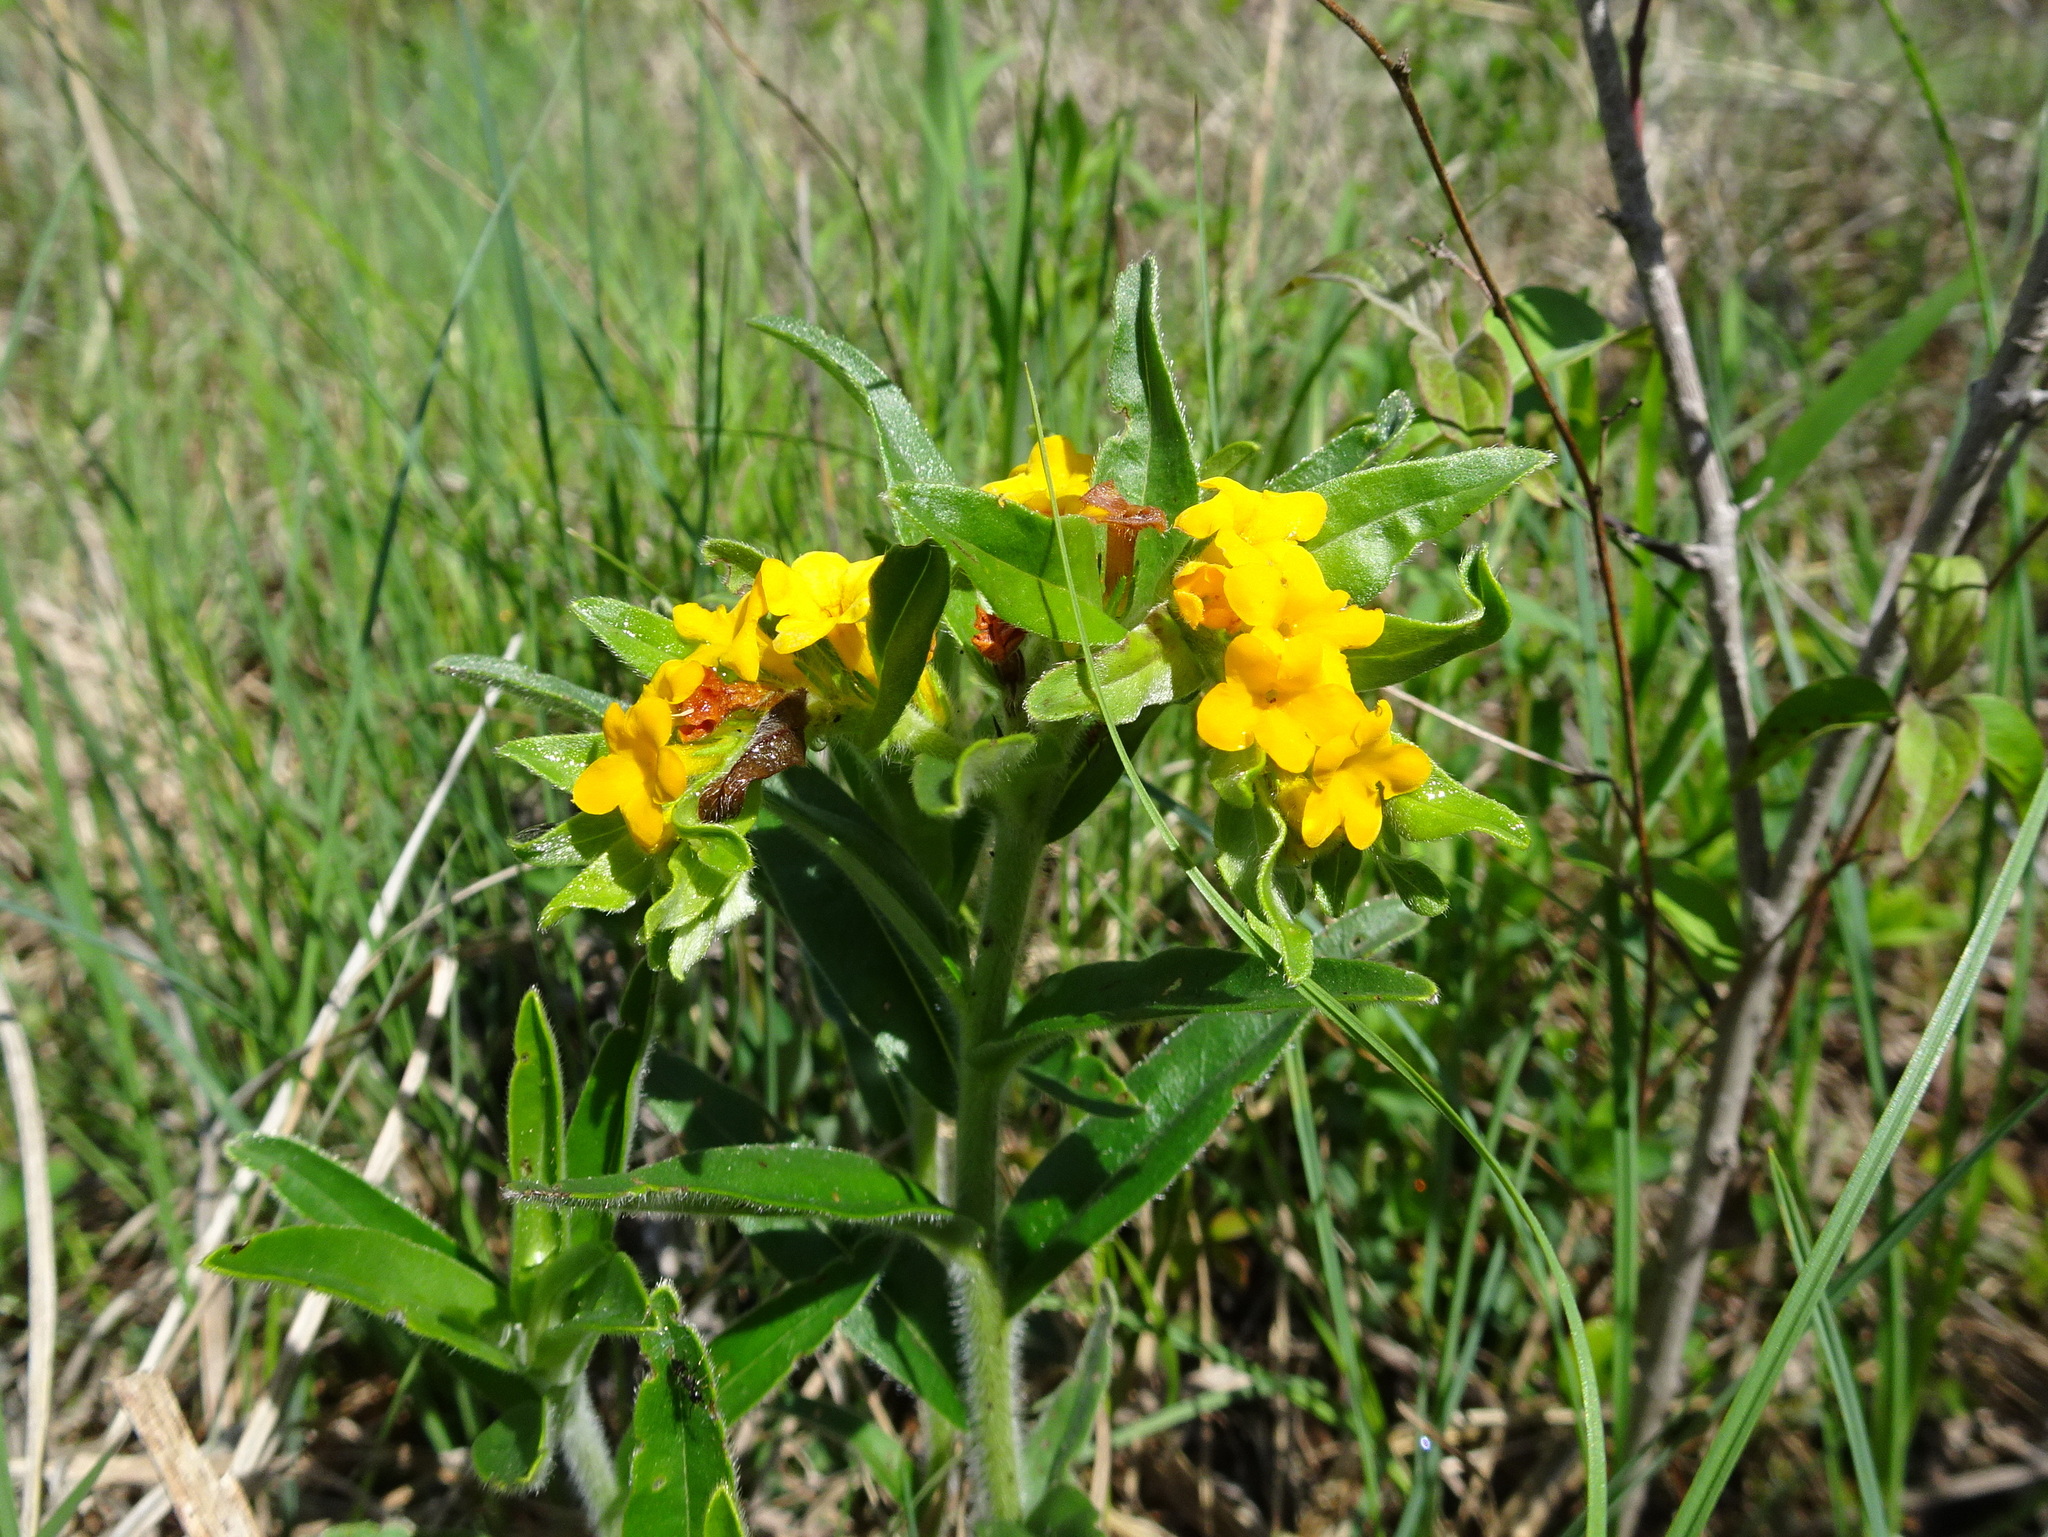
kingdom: Plantae
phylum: Tracheophyta
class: Magnoliopsida
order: Boraginales
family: Boraginaceae
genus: Lithospermum
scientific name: Lithospermum canescens
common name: Hoary puccoon
